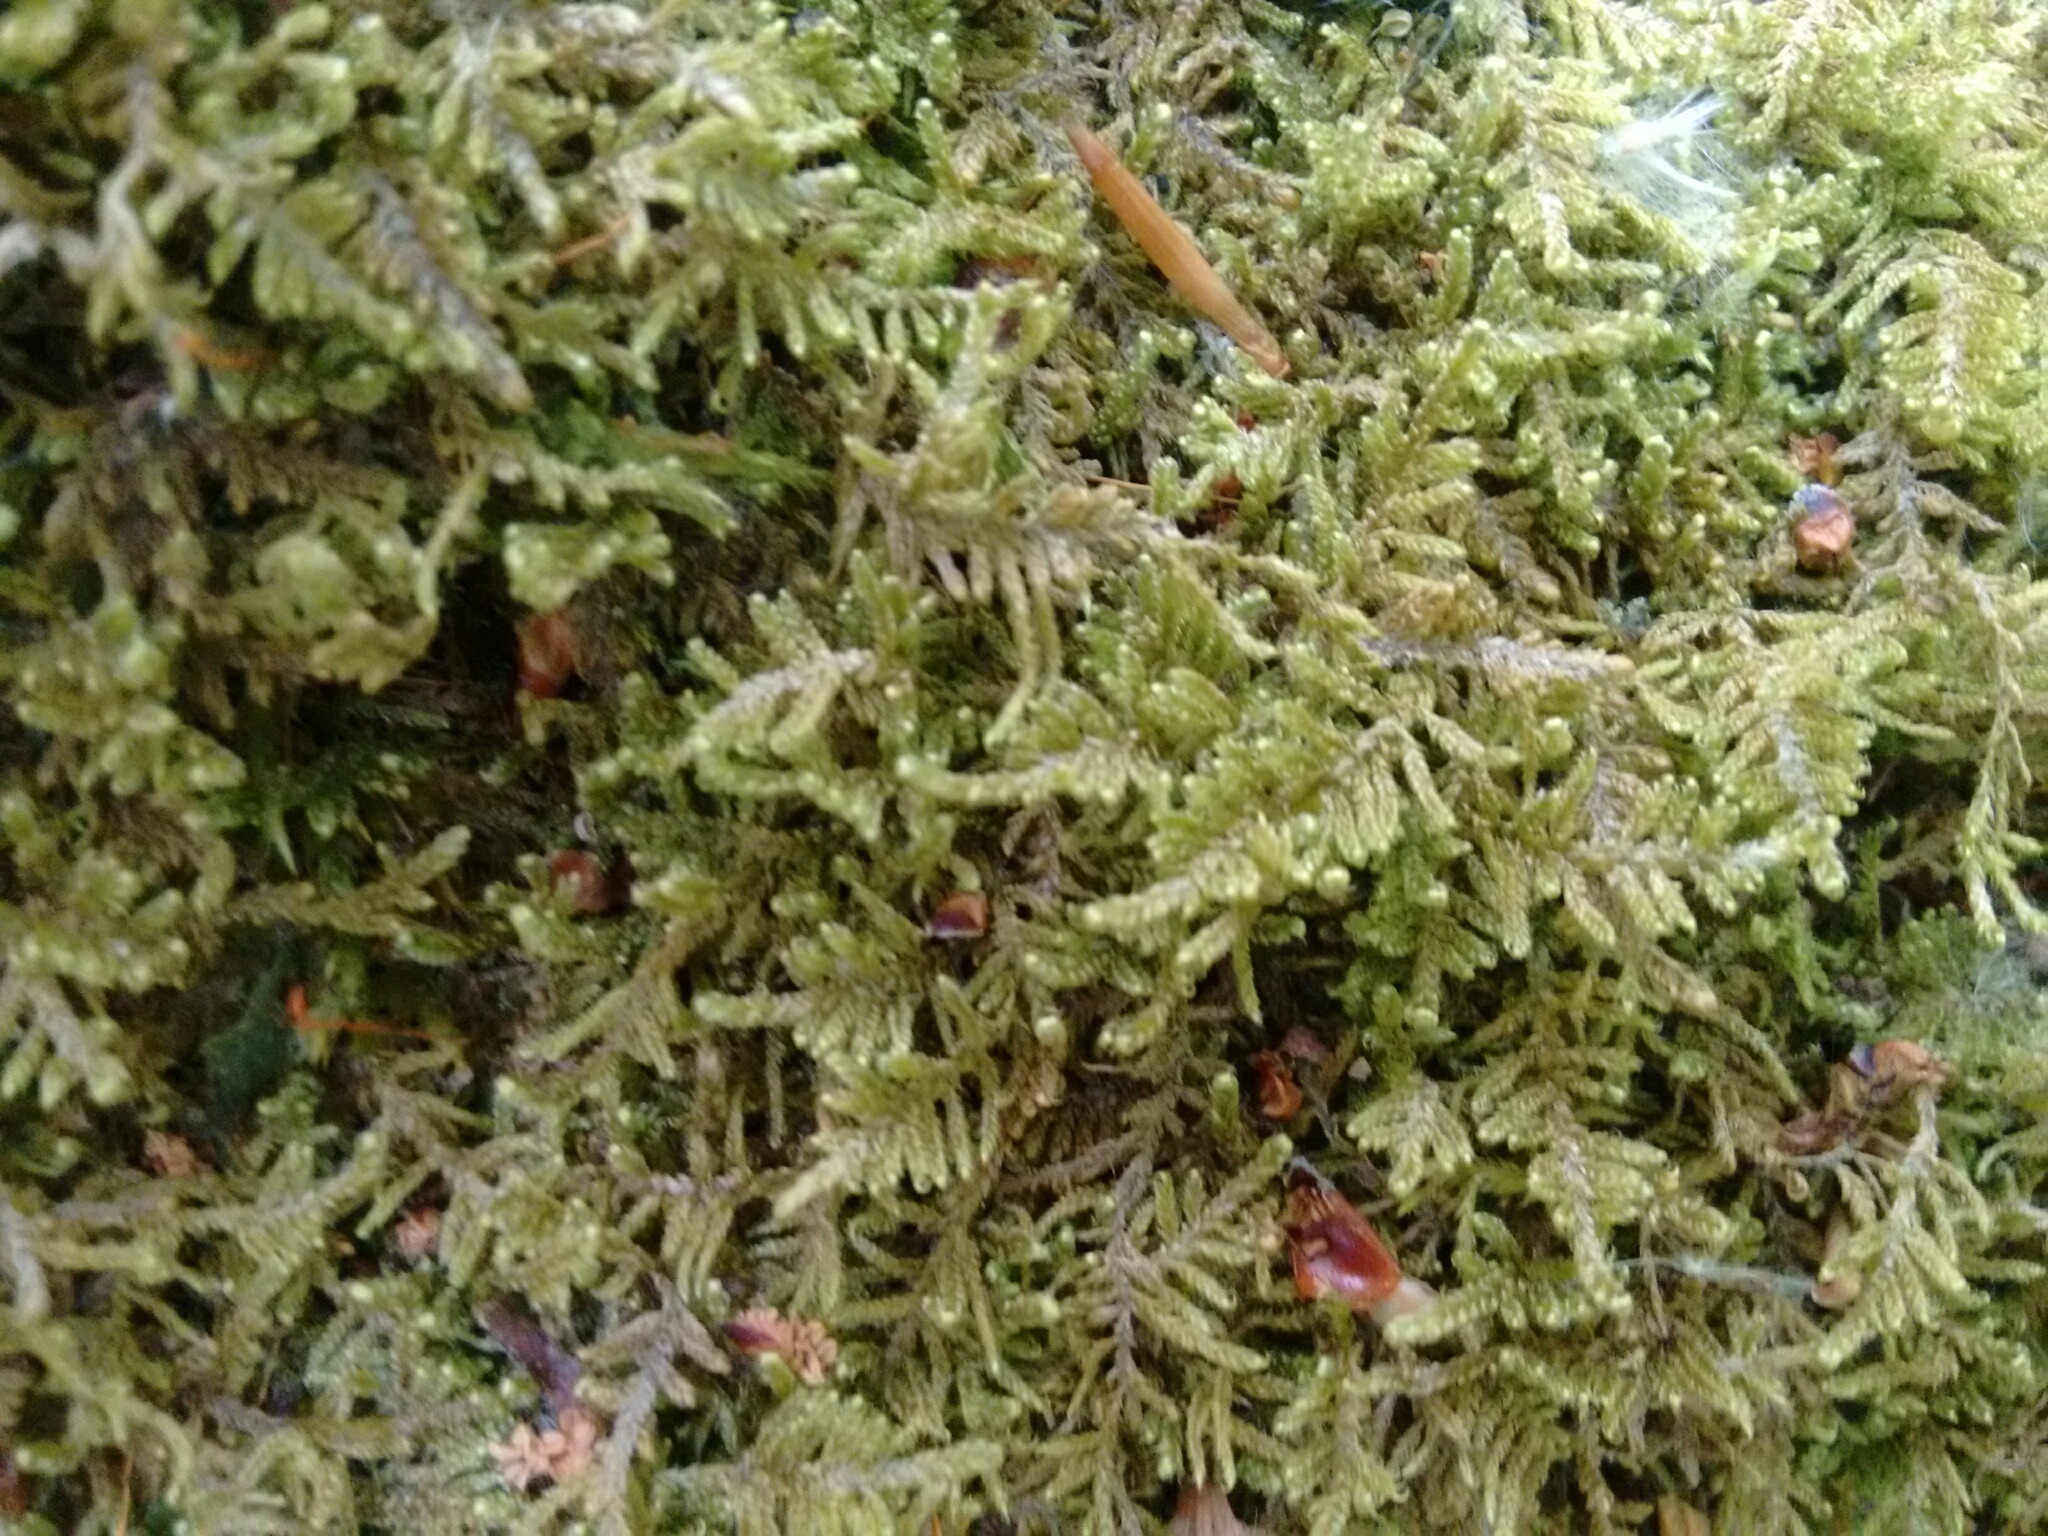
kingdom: Plantae
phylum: Bryophyta
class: Bryopsida
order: Hypnales
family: Callicladiaceae
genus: Callicladium
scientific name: Callicladium imponens
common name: Brocade moss
